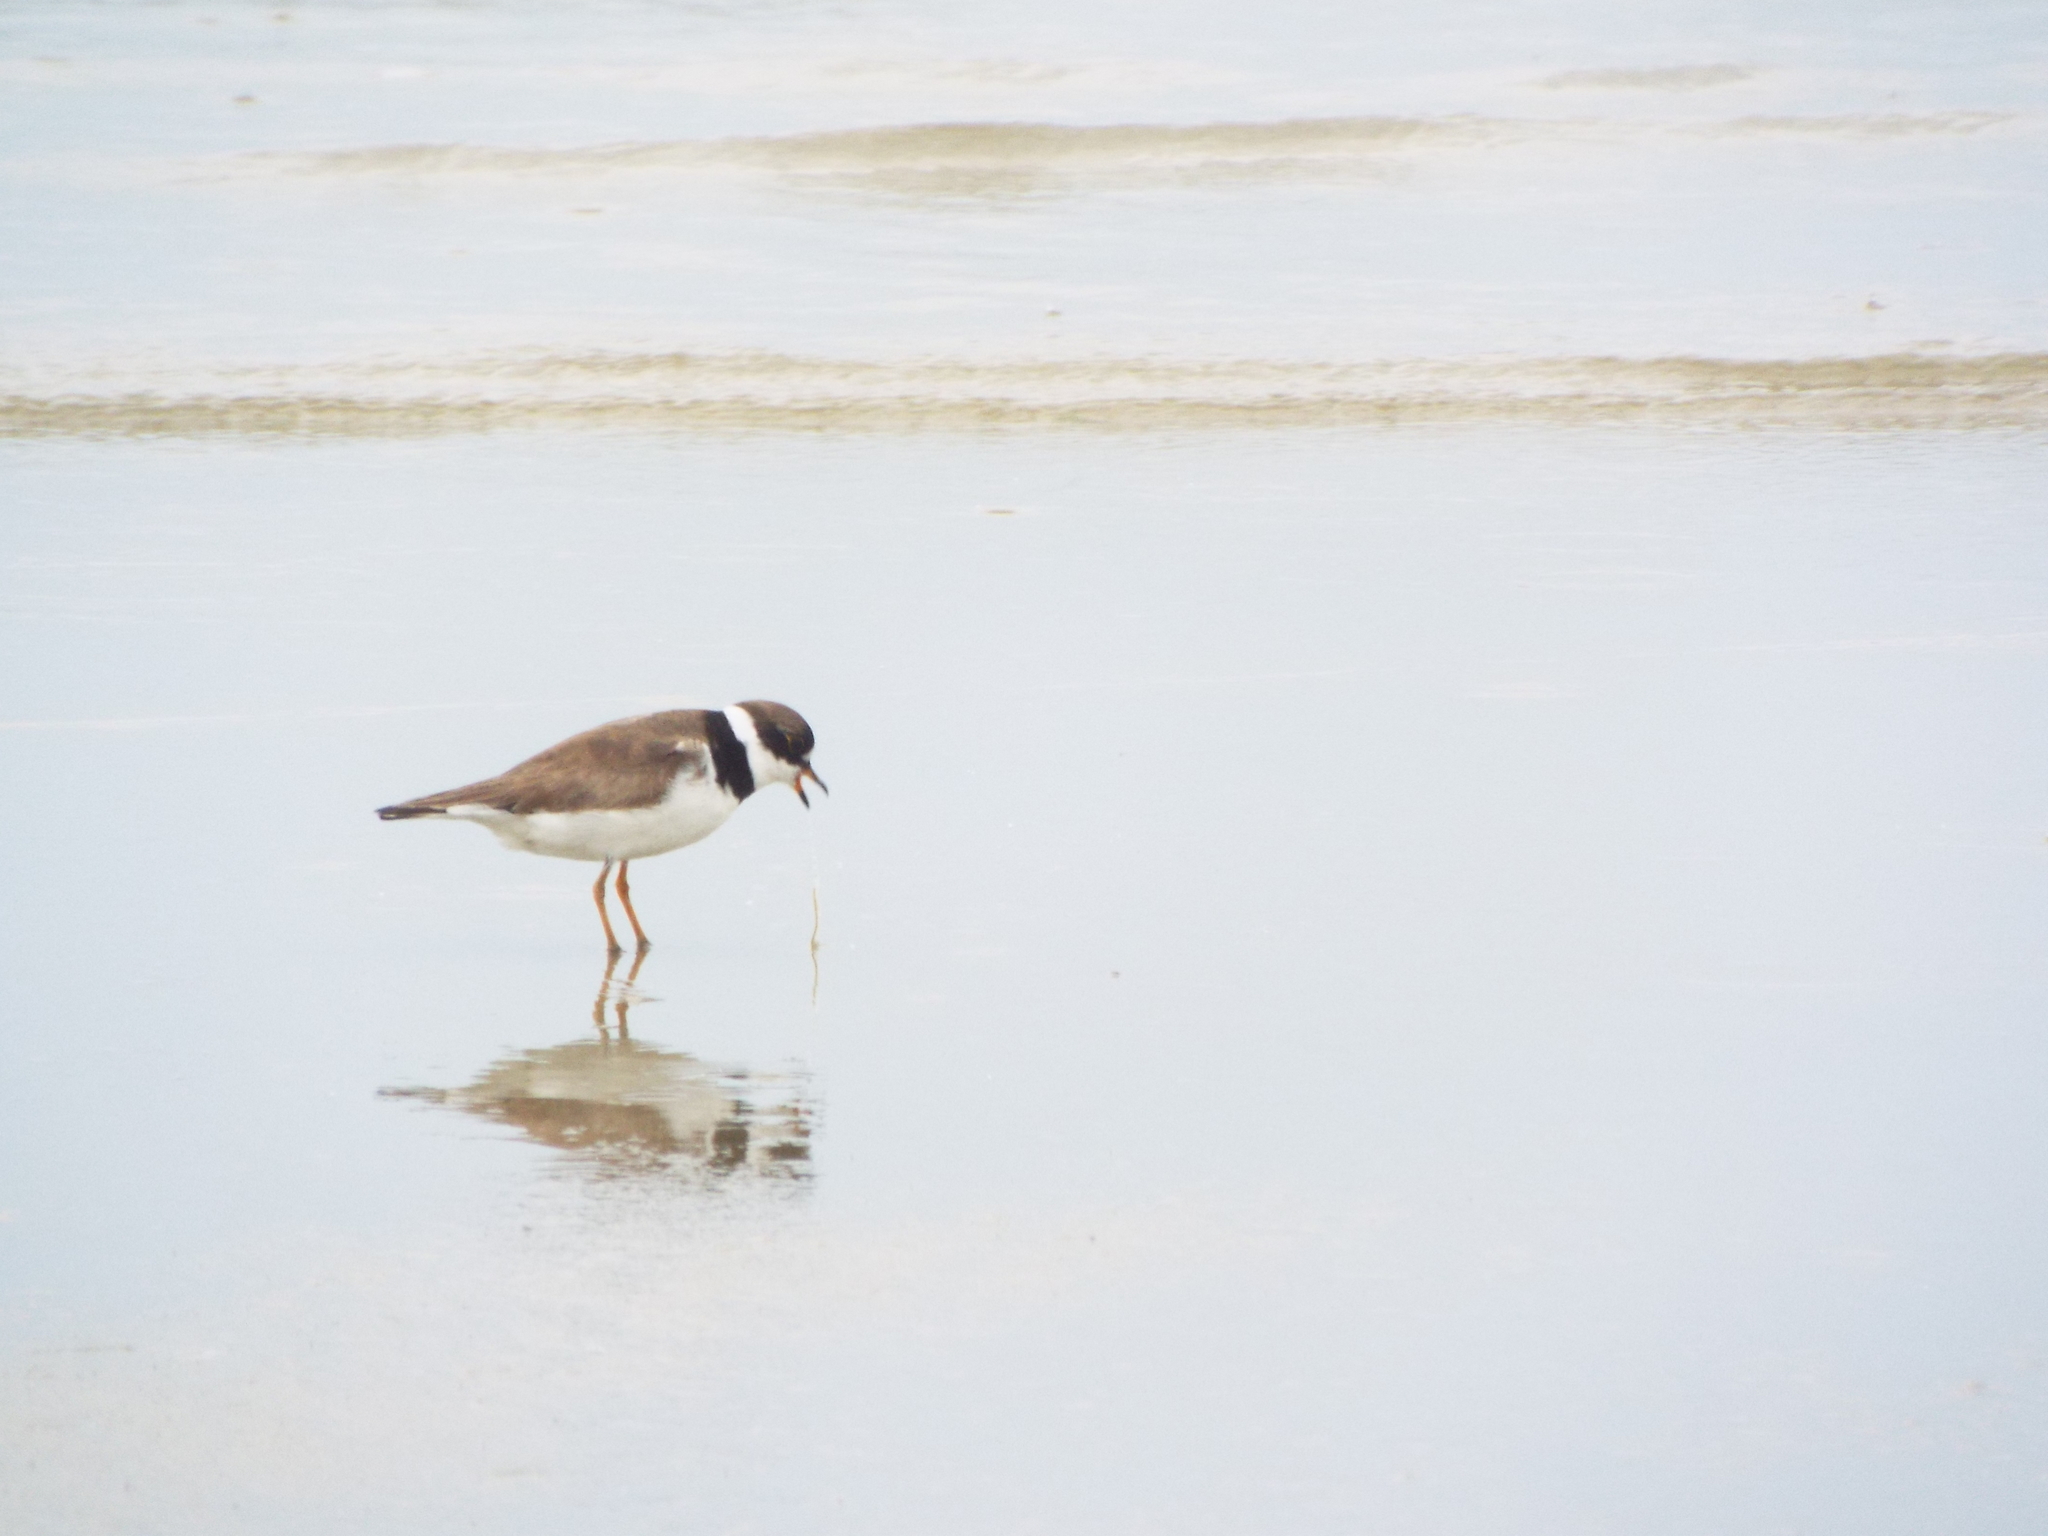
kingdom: Animalia
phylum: Chordata
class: Aves
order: Charadriiformes
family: Charadriidae
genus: Charadrius
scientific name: Charadrius semipalmatus
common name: Semipalmated plover
